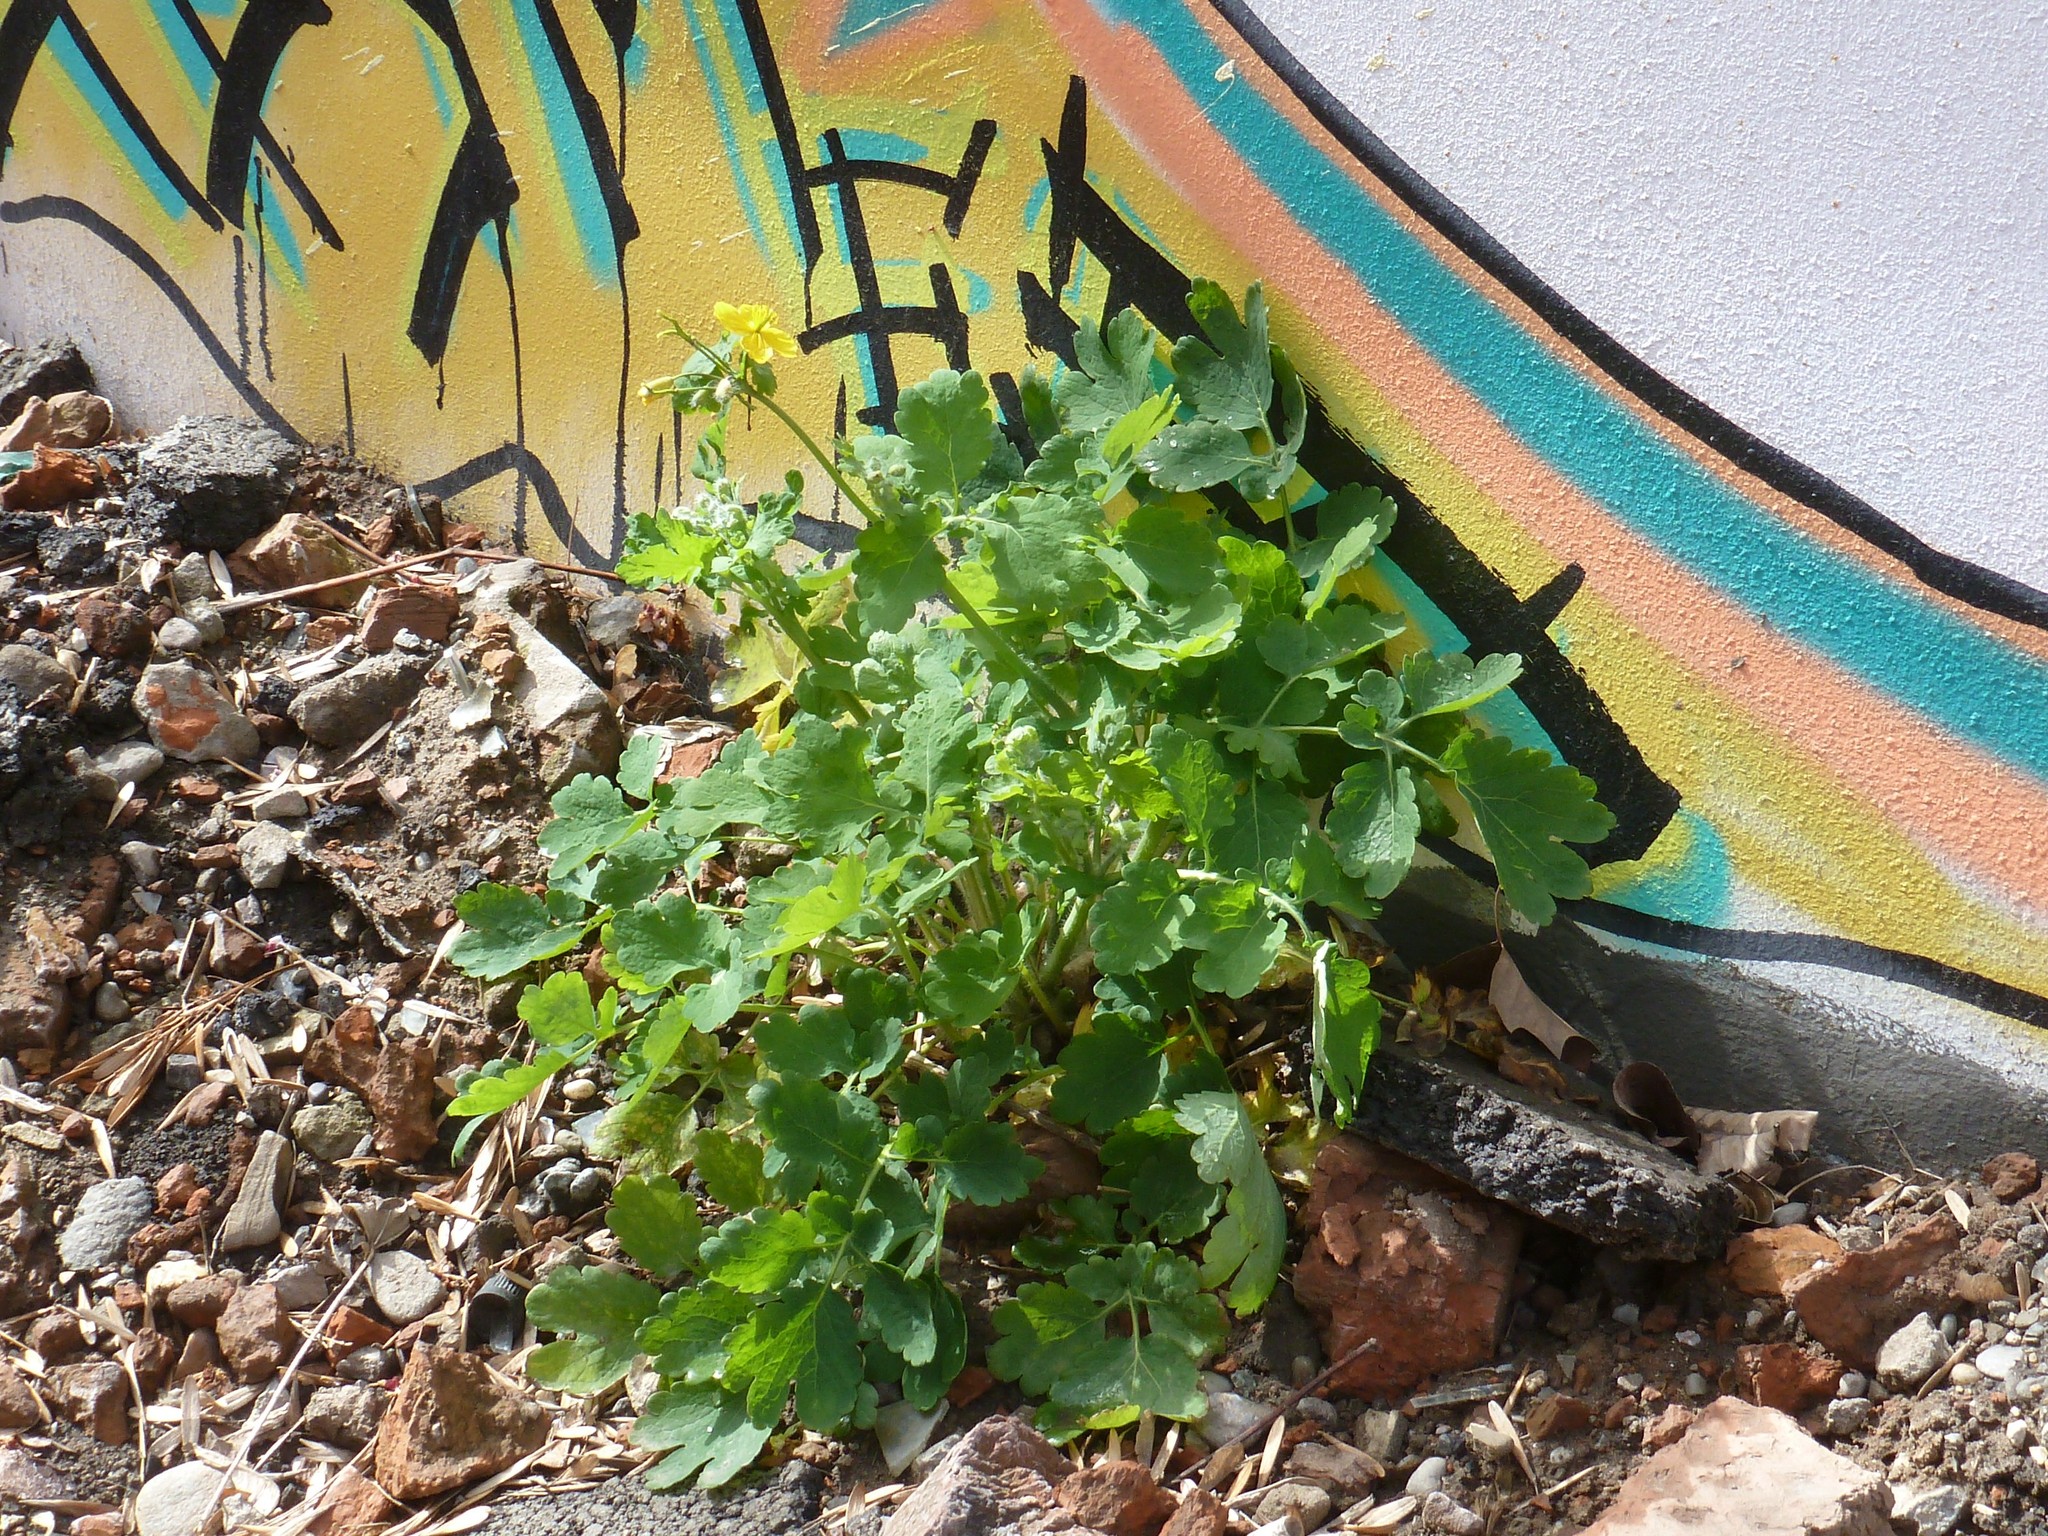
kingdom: Plantae
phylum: Tracheophyta
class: Magnoliopsida
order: Ranunculales
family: Papaveraceae
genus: Chelidonium
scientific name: Chelidonium majus
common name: Greater celandine
